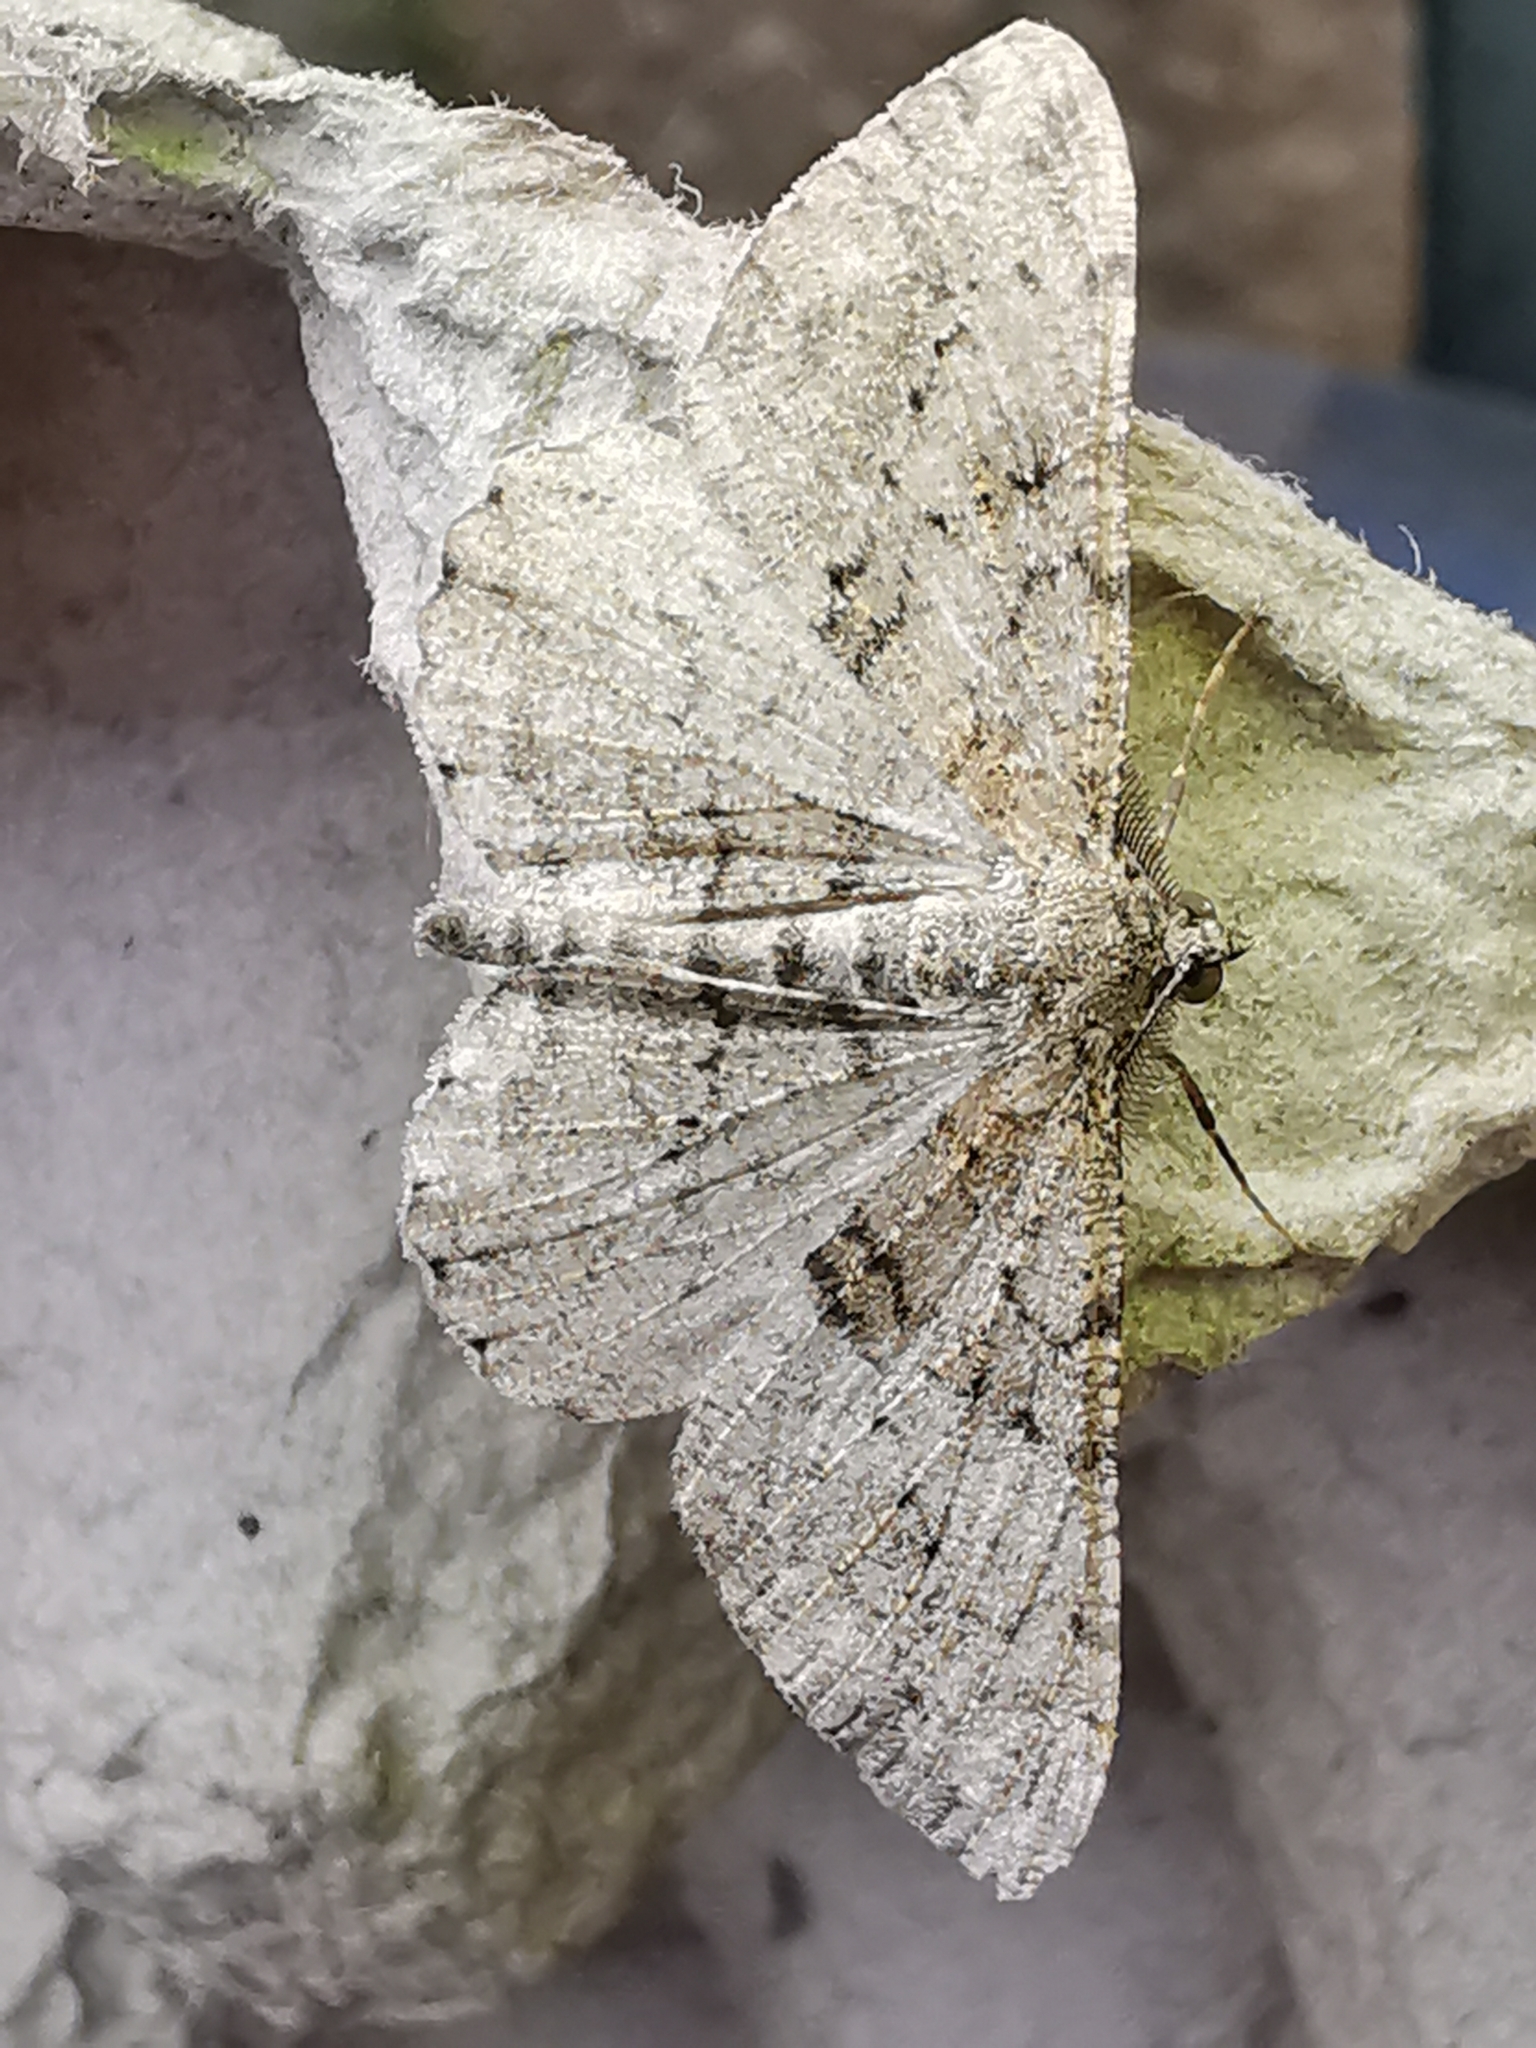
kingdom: Animalia
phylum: Arthropoda
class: Insecta
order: Lepidoptera
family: Geometridae
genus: Peribatodes
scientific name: Peribatodes rhomboidaria
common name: Willow beauty
